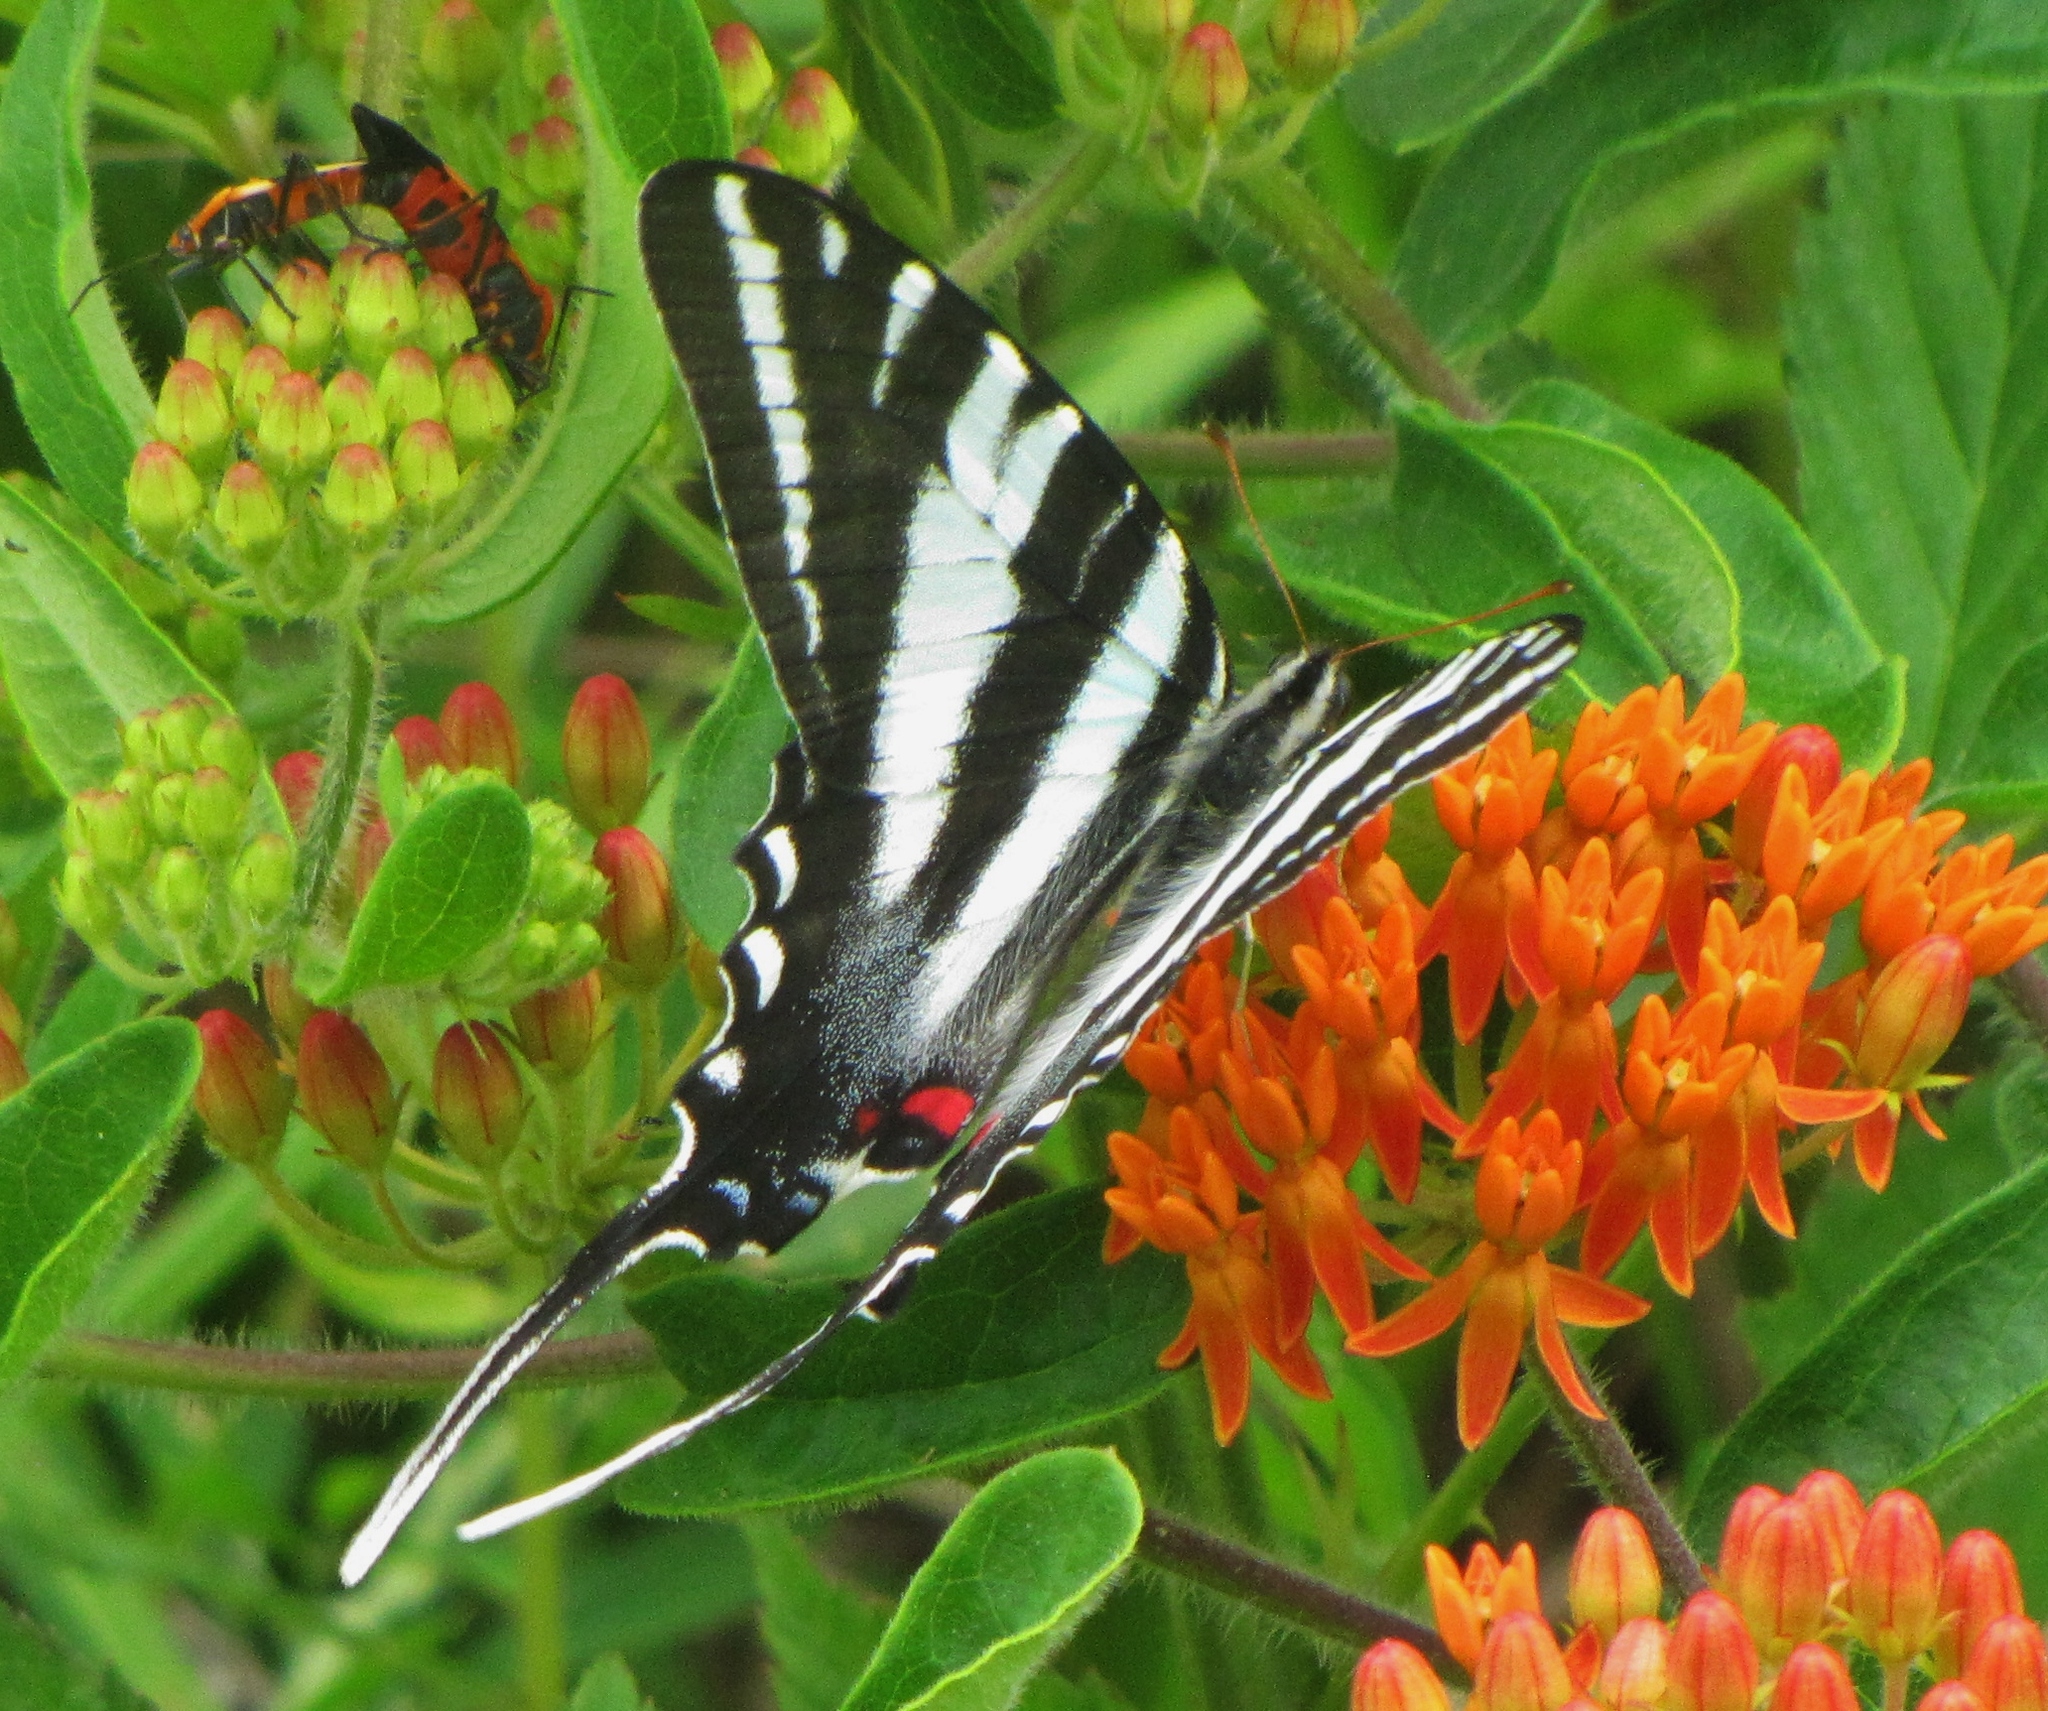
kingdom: Animalia
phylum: Arthropoda
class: Insecta
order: Lepidoptera
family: Papilionidae
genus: Protographium
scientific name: Protographium marcellus
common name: Zebra swallowtail
